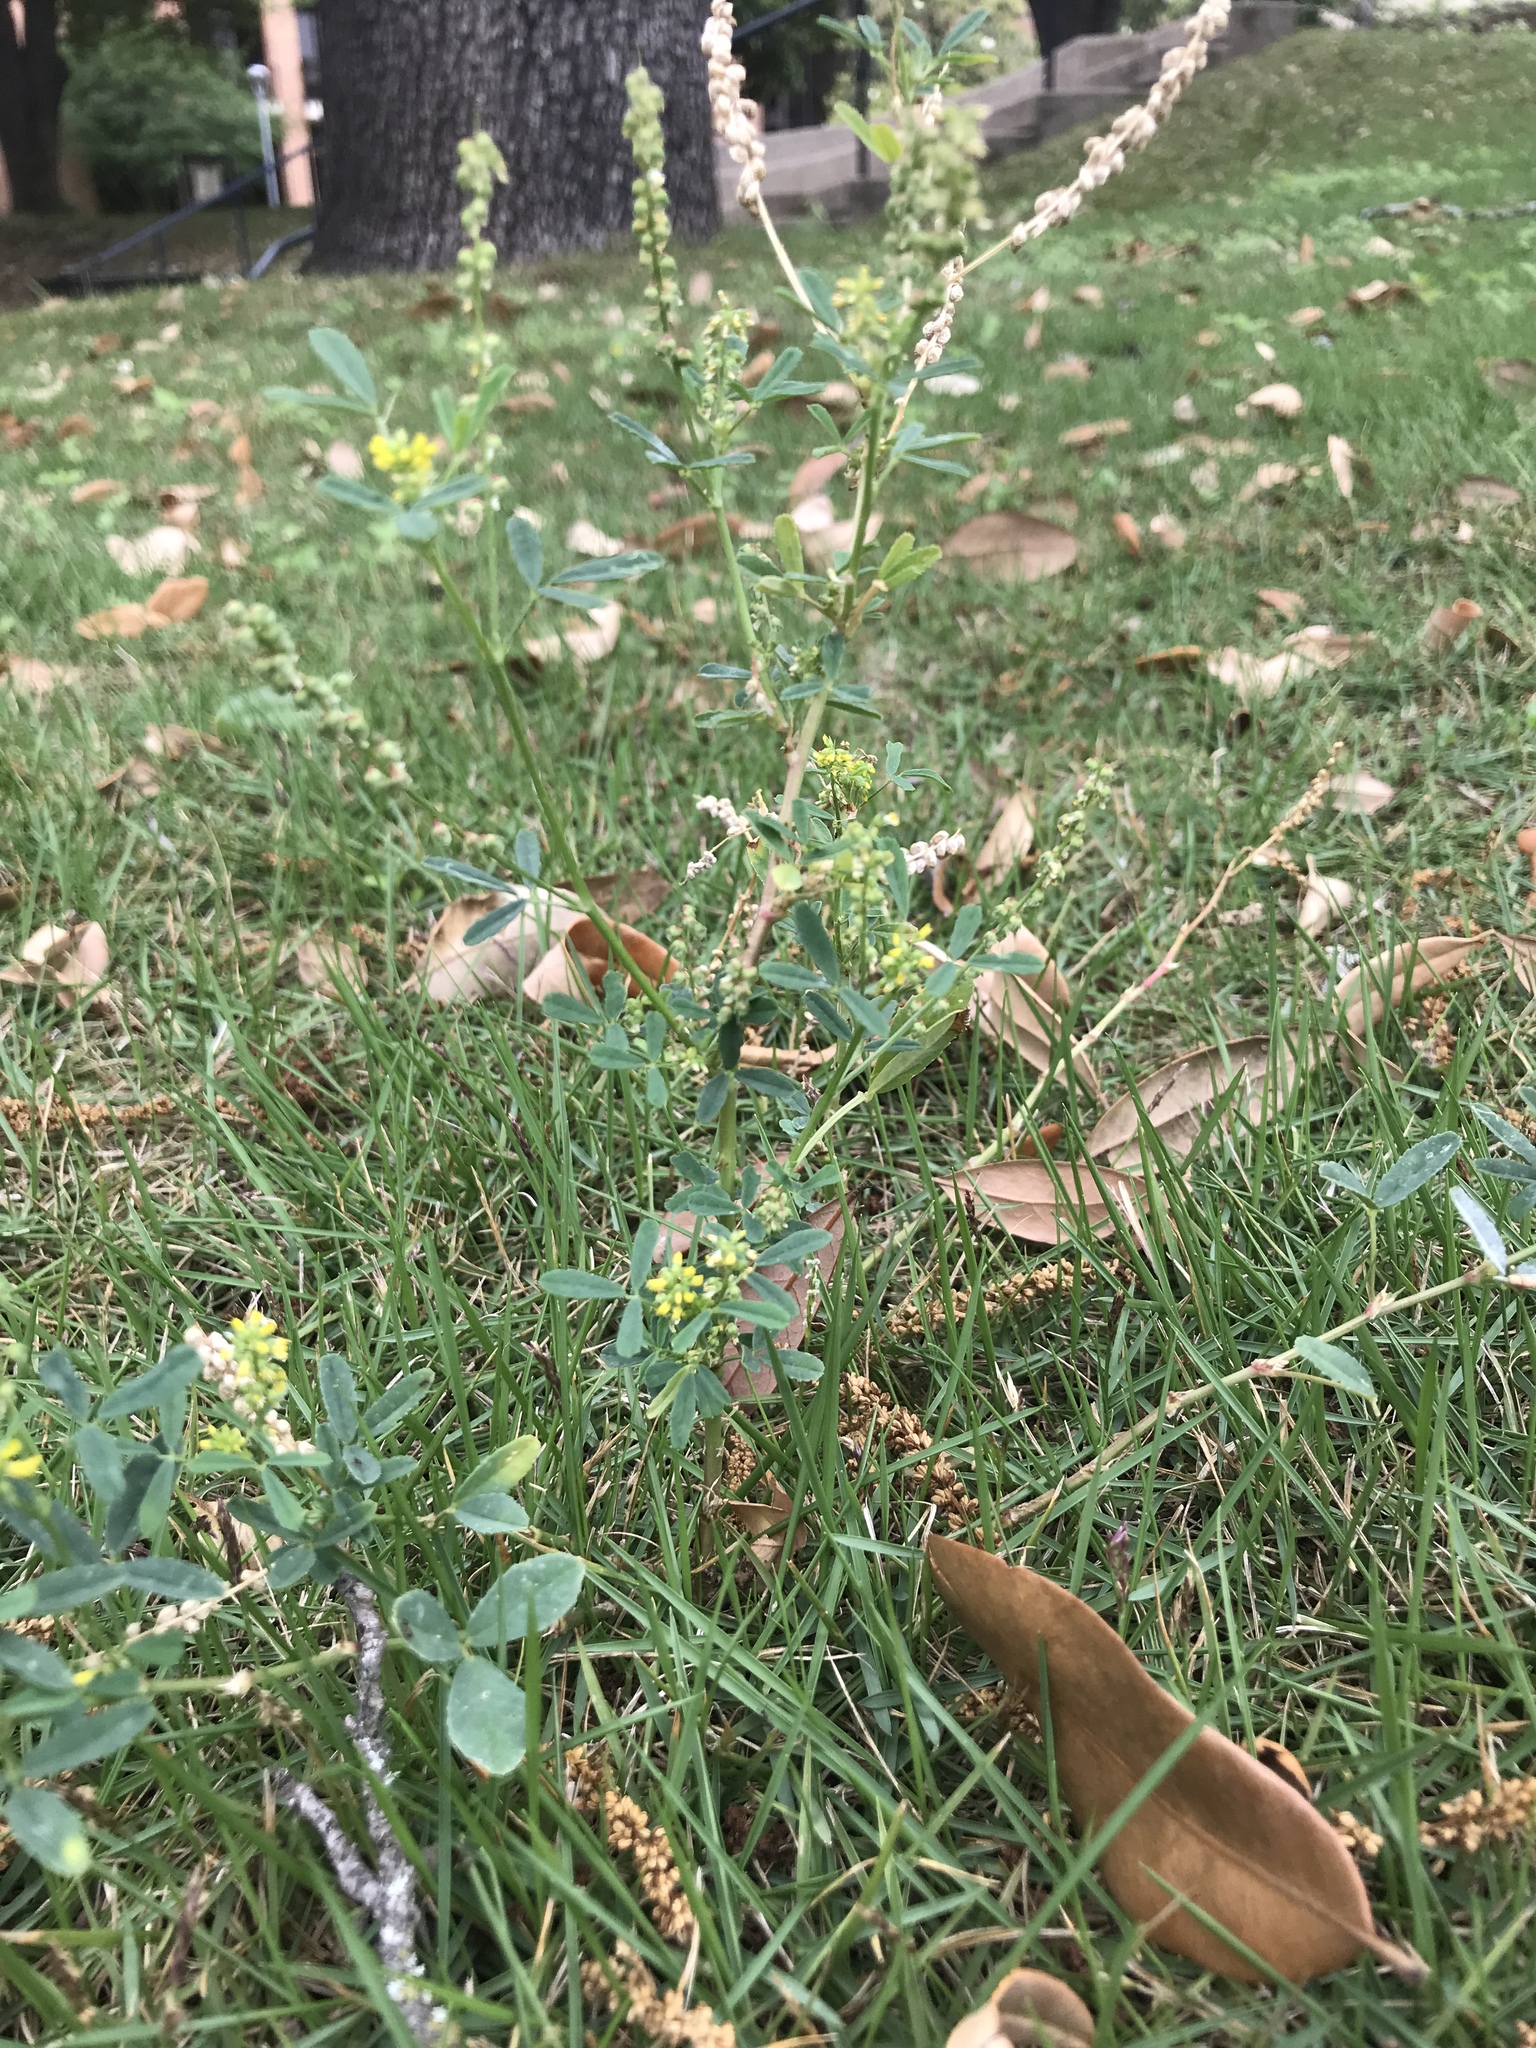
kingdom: Plantae
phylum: Tracheophyta
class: Magnoliopsida
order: Fabales
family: Fabaceae
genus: Melilotus
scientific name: Melilotus indicus
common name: Small melilot
